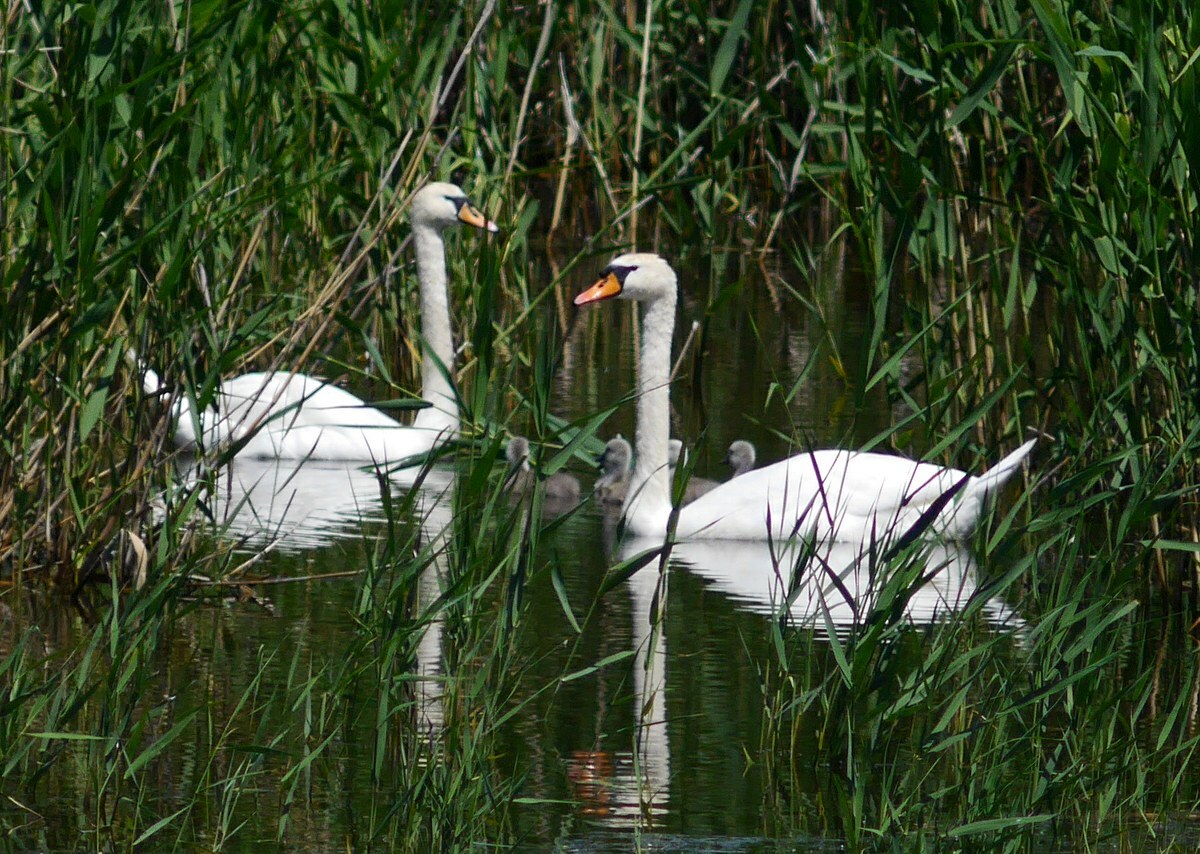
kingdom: Animalia
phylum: Chordata
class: Aves
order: Anseriformes
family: Anatidae
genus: Cygnus
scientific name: Cygnus olor
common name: Mute swan
